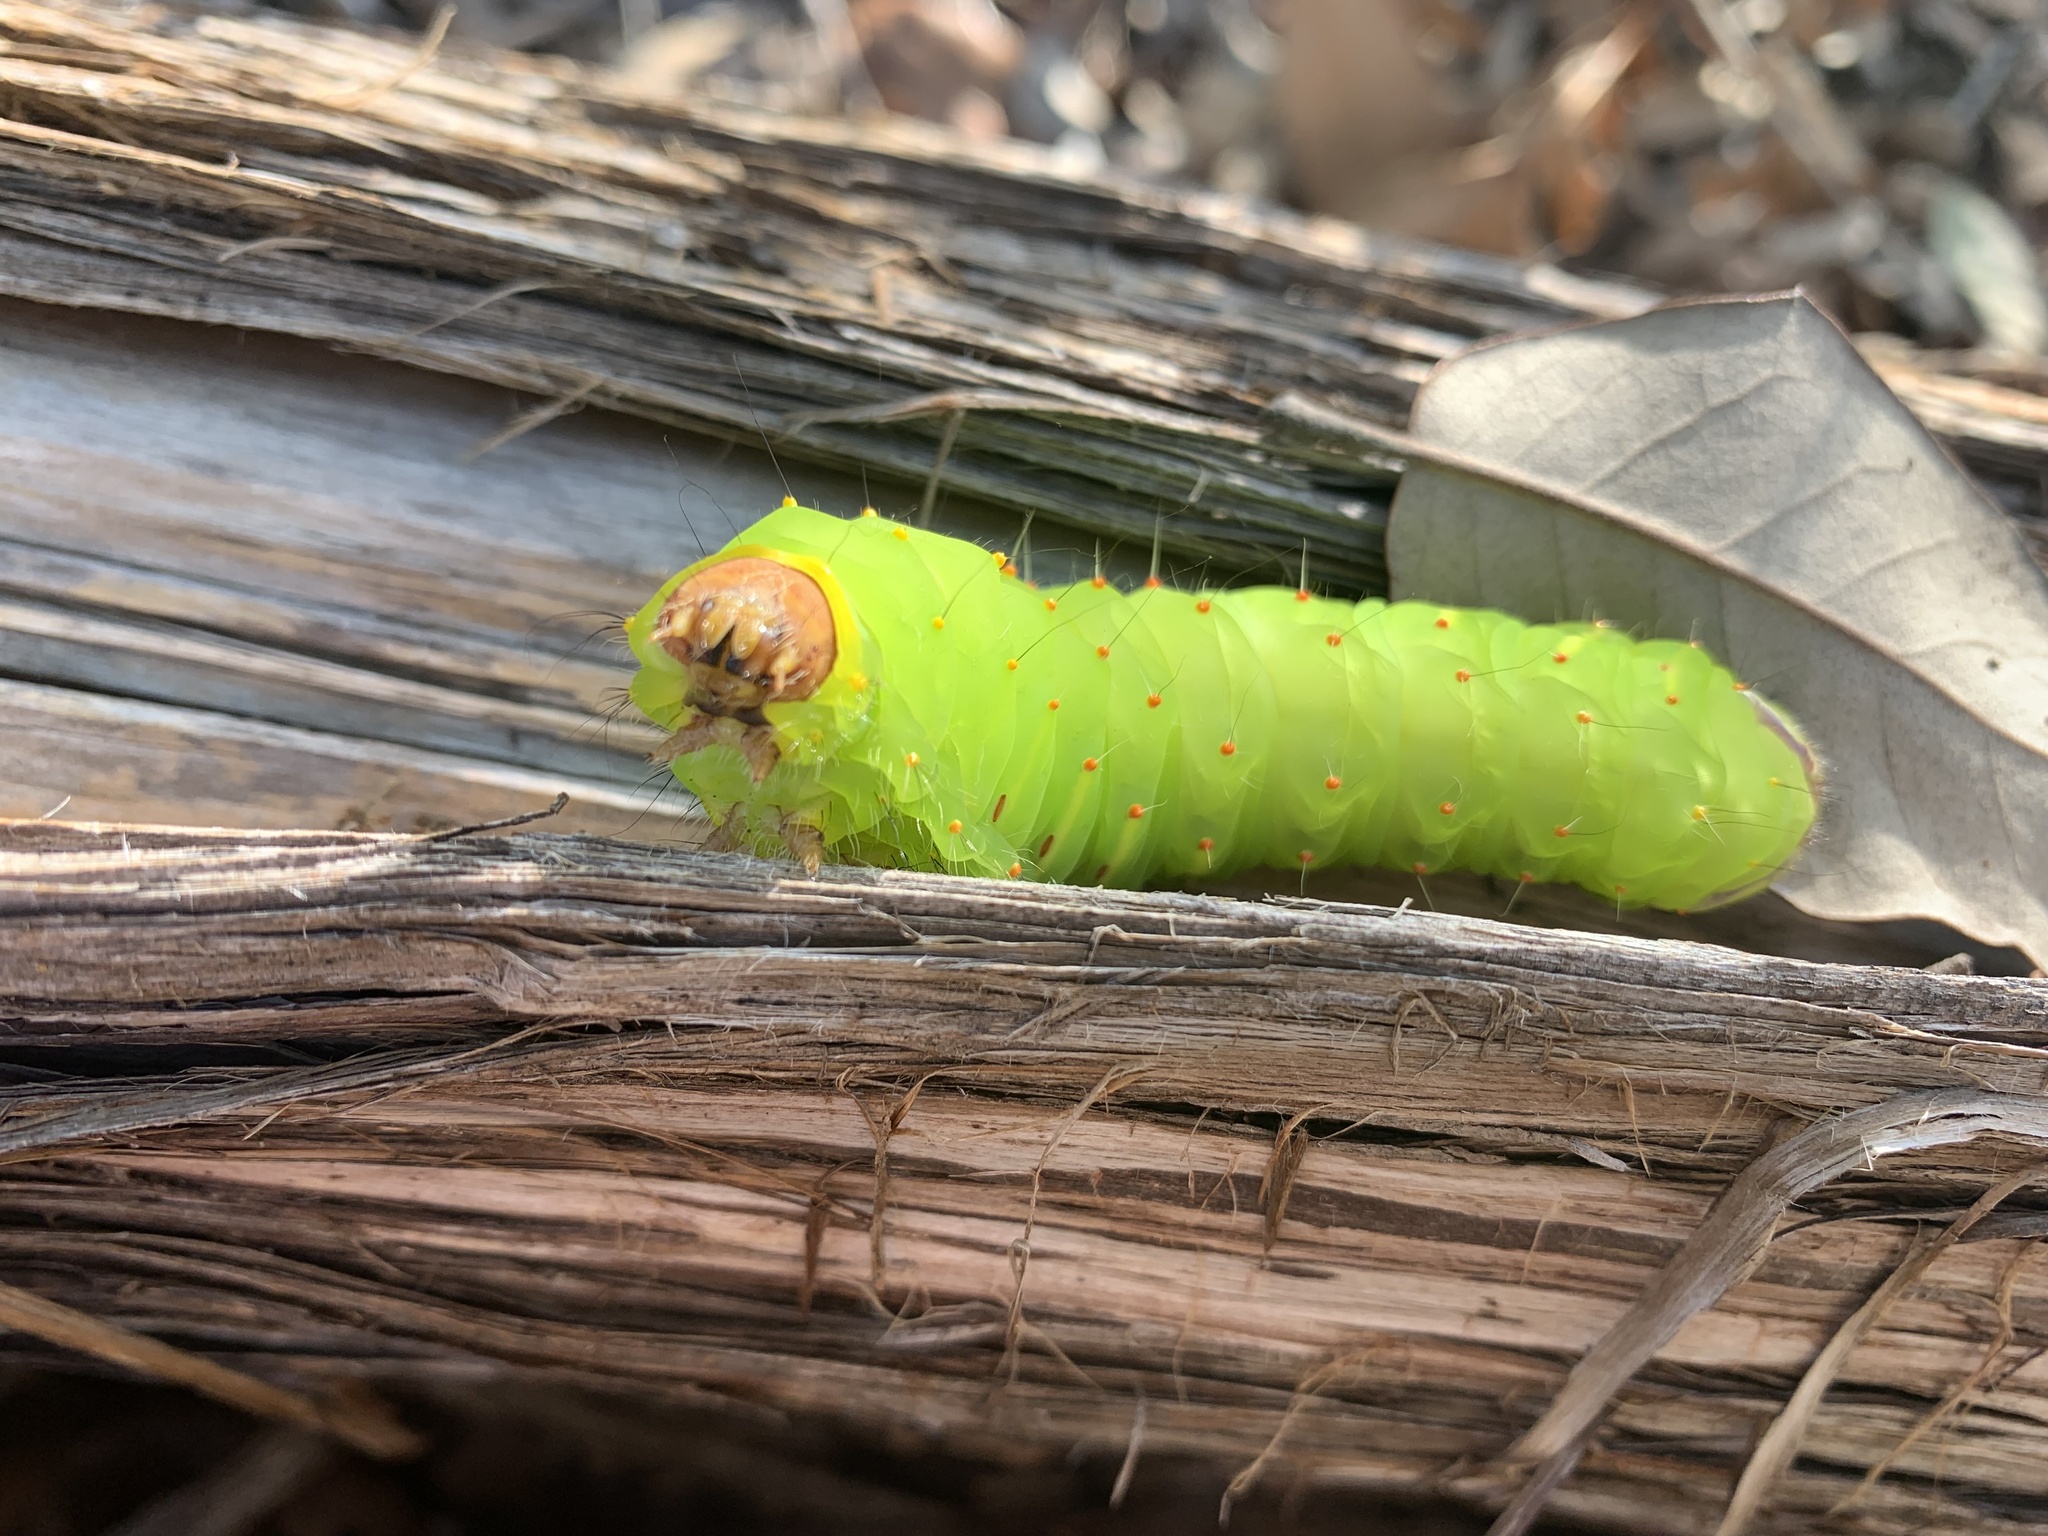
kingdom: Animalia
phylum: Arthropoda
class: Insecta
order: Lepidoptera
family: Saturniidae
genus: Antheraea
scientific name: Antheraea polyphemus
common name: Polyphemus moth
